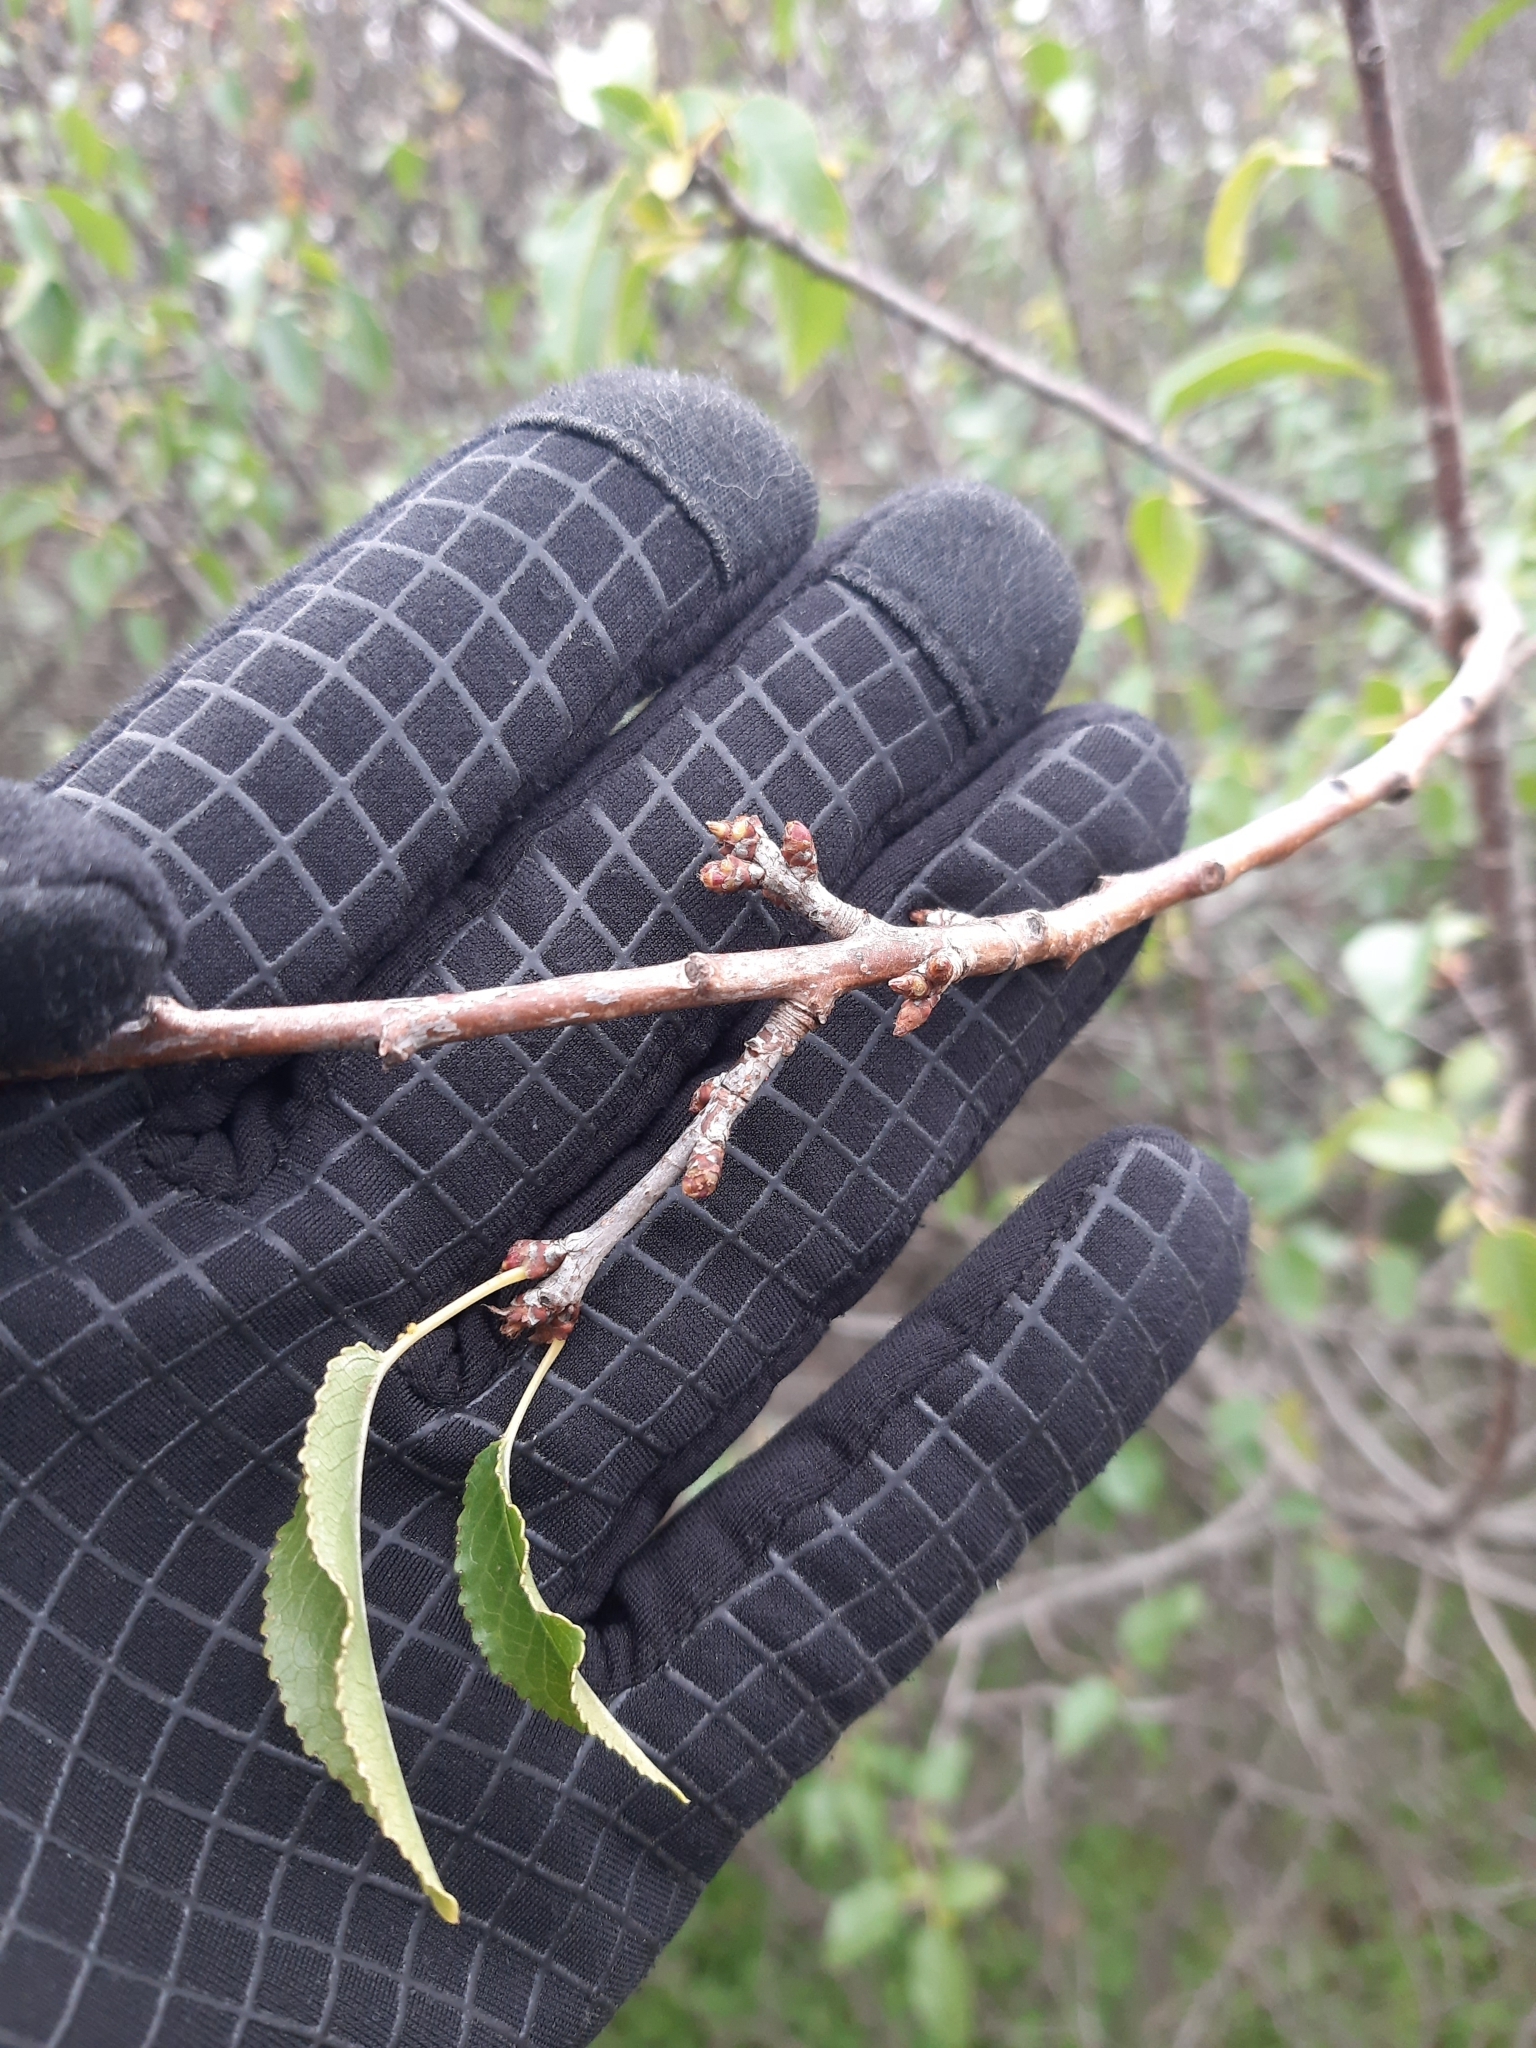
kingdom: Plantae
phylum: Tracheophyta
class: Magnoliopsida
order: Rosales
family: Rosaceae
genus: Prunus
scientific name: Prunus mahaleb
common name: Mahaleb cherry
